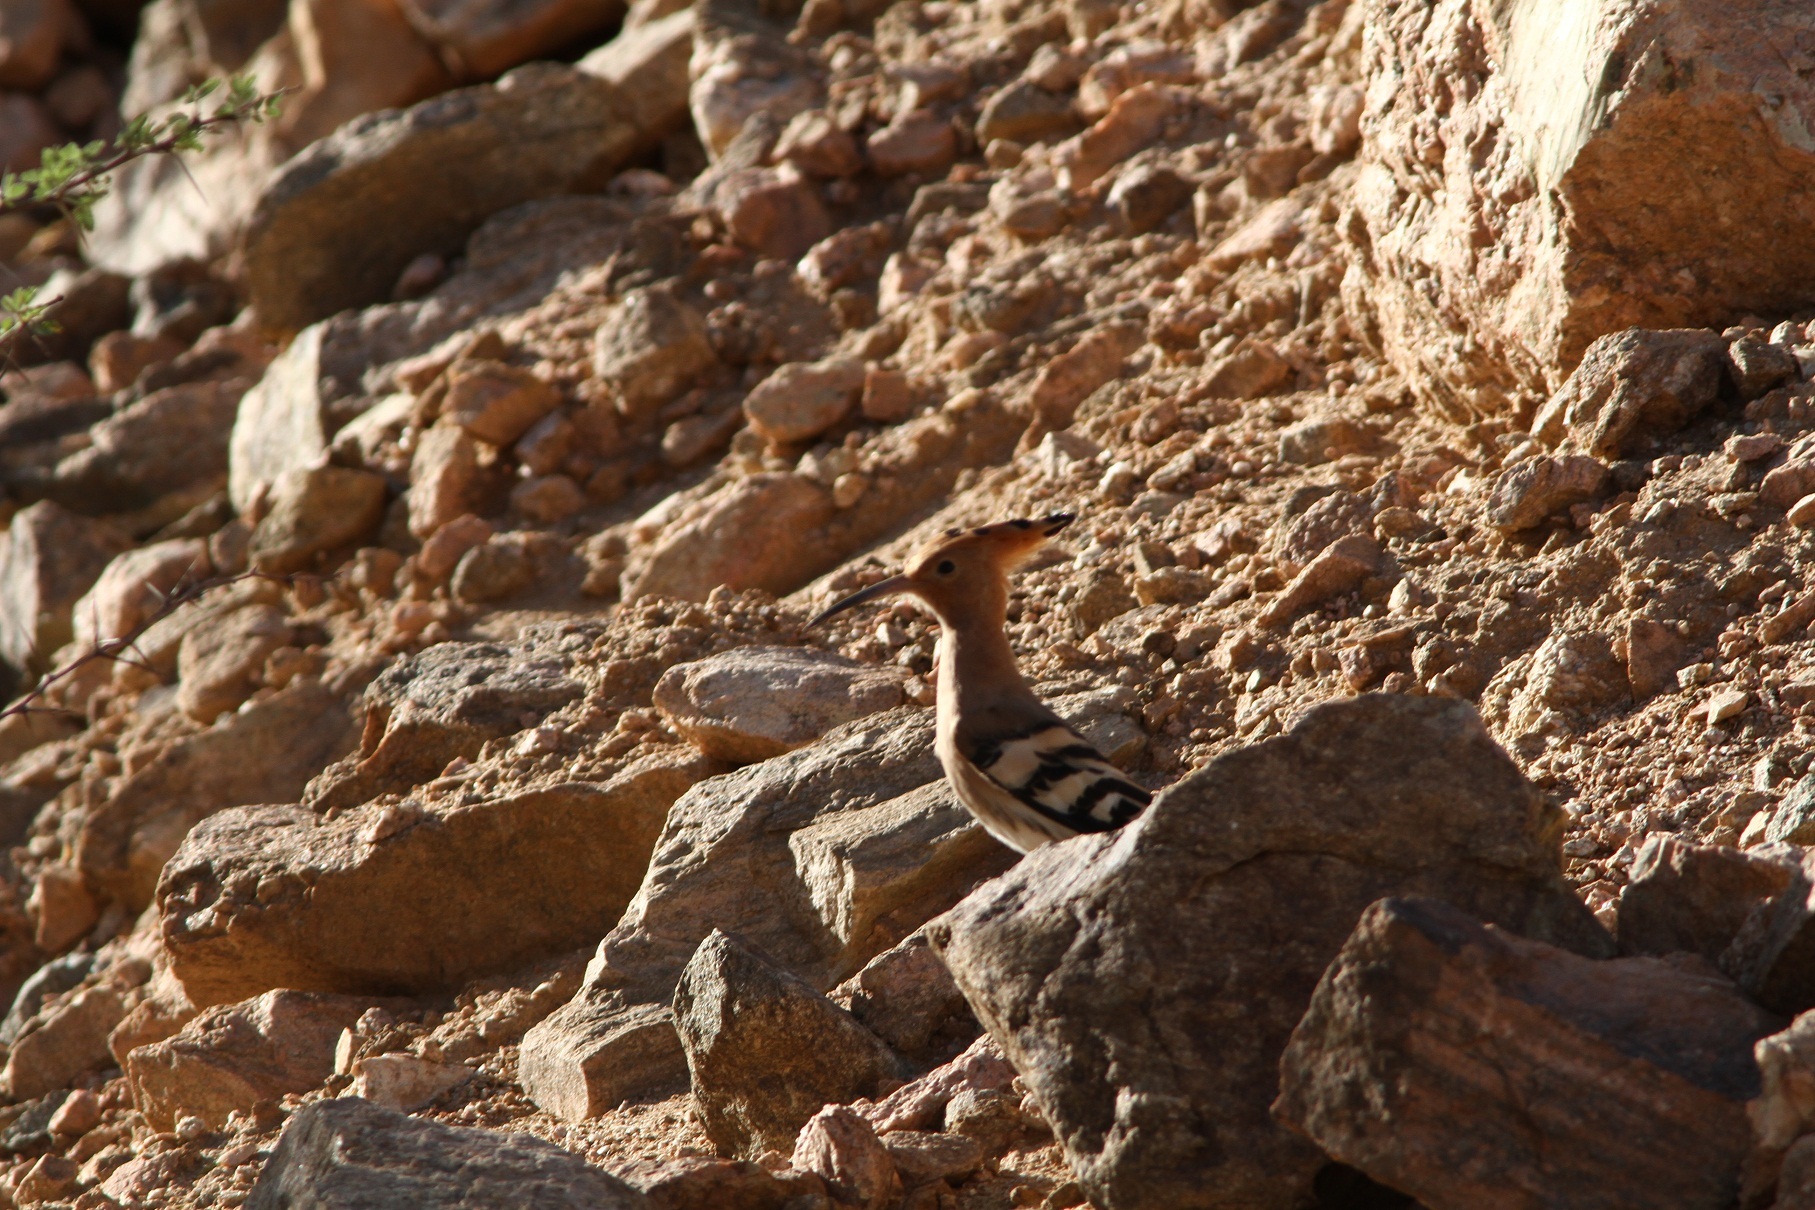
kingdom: Animalia
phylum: Chordata
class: Aves
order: Bucerotiformes
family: Upupidae
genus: Upupa
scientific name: Upupa epops
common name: Eurasian hoopoe
